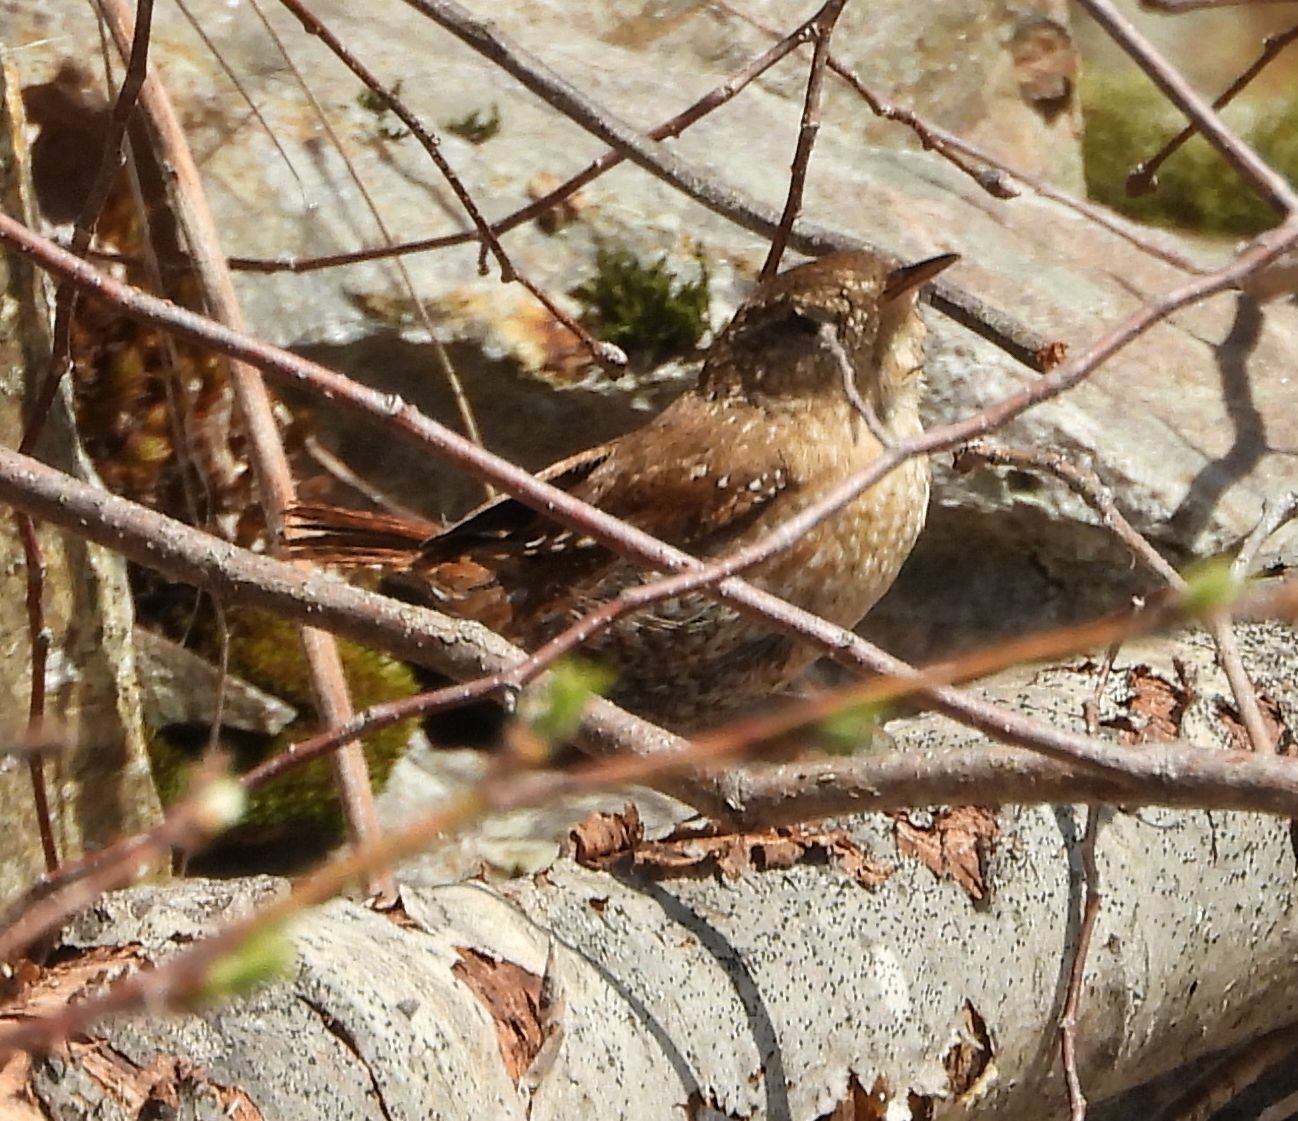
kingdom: Animalia
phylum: Chordata
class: Aves
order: Passeriformes
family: Troglodytidae
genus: Troglodytes
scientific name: Troglodytes hiemalis
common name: Winter wren
